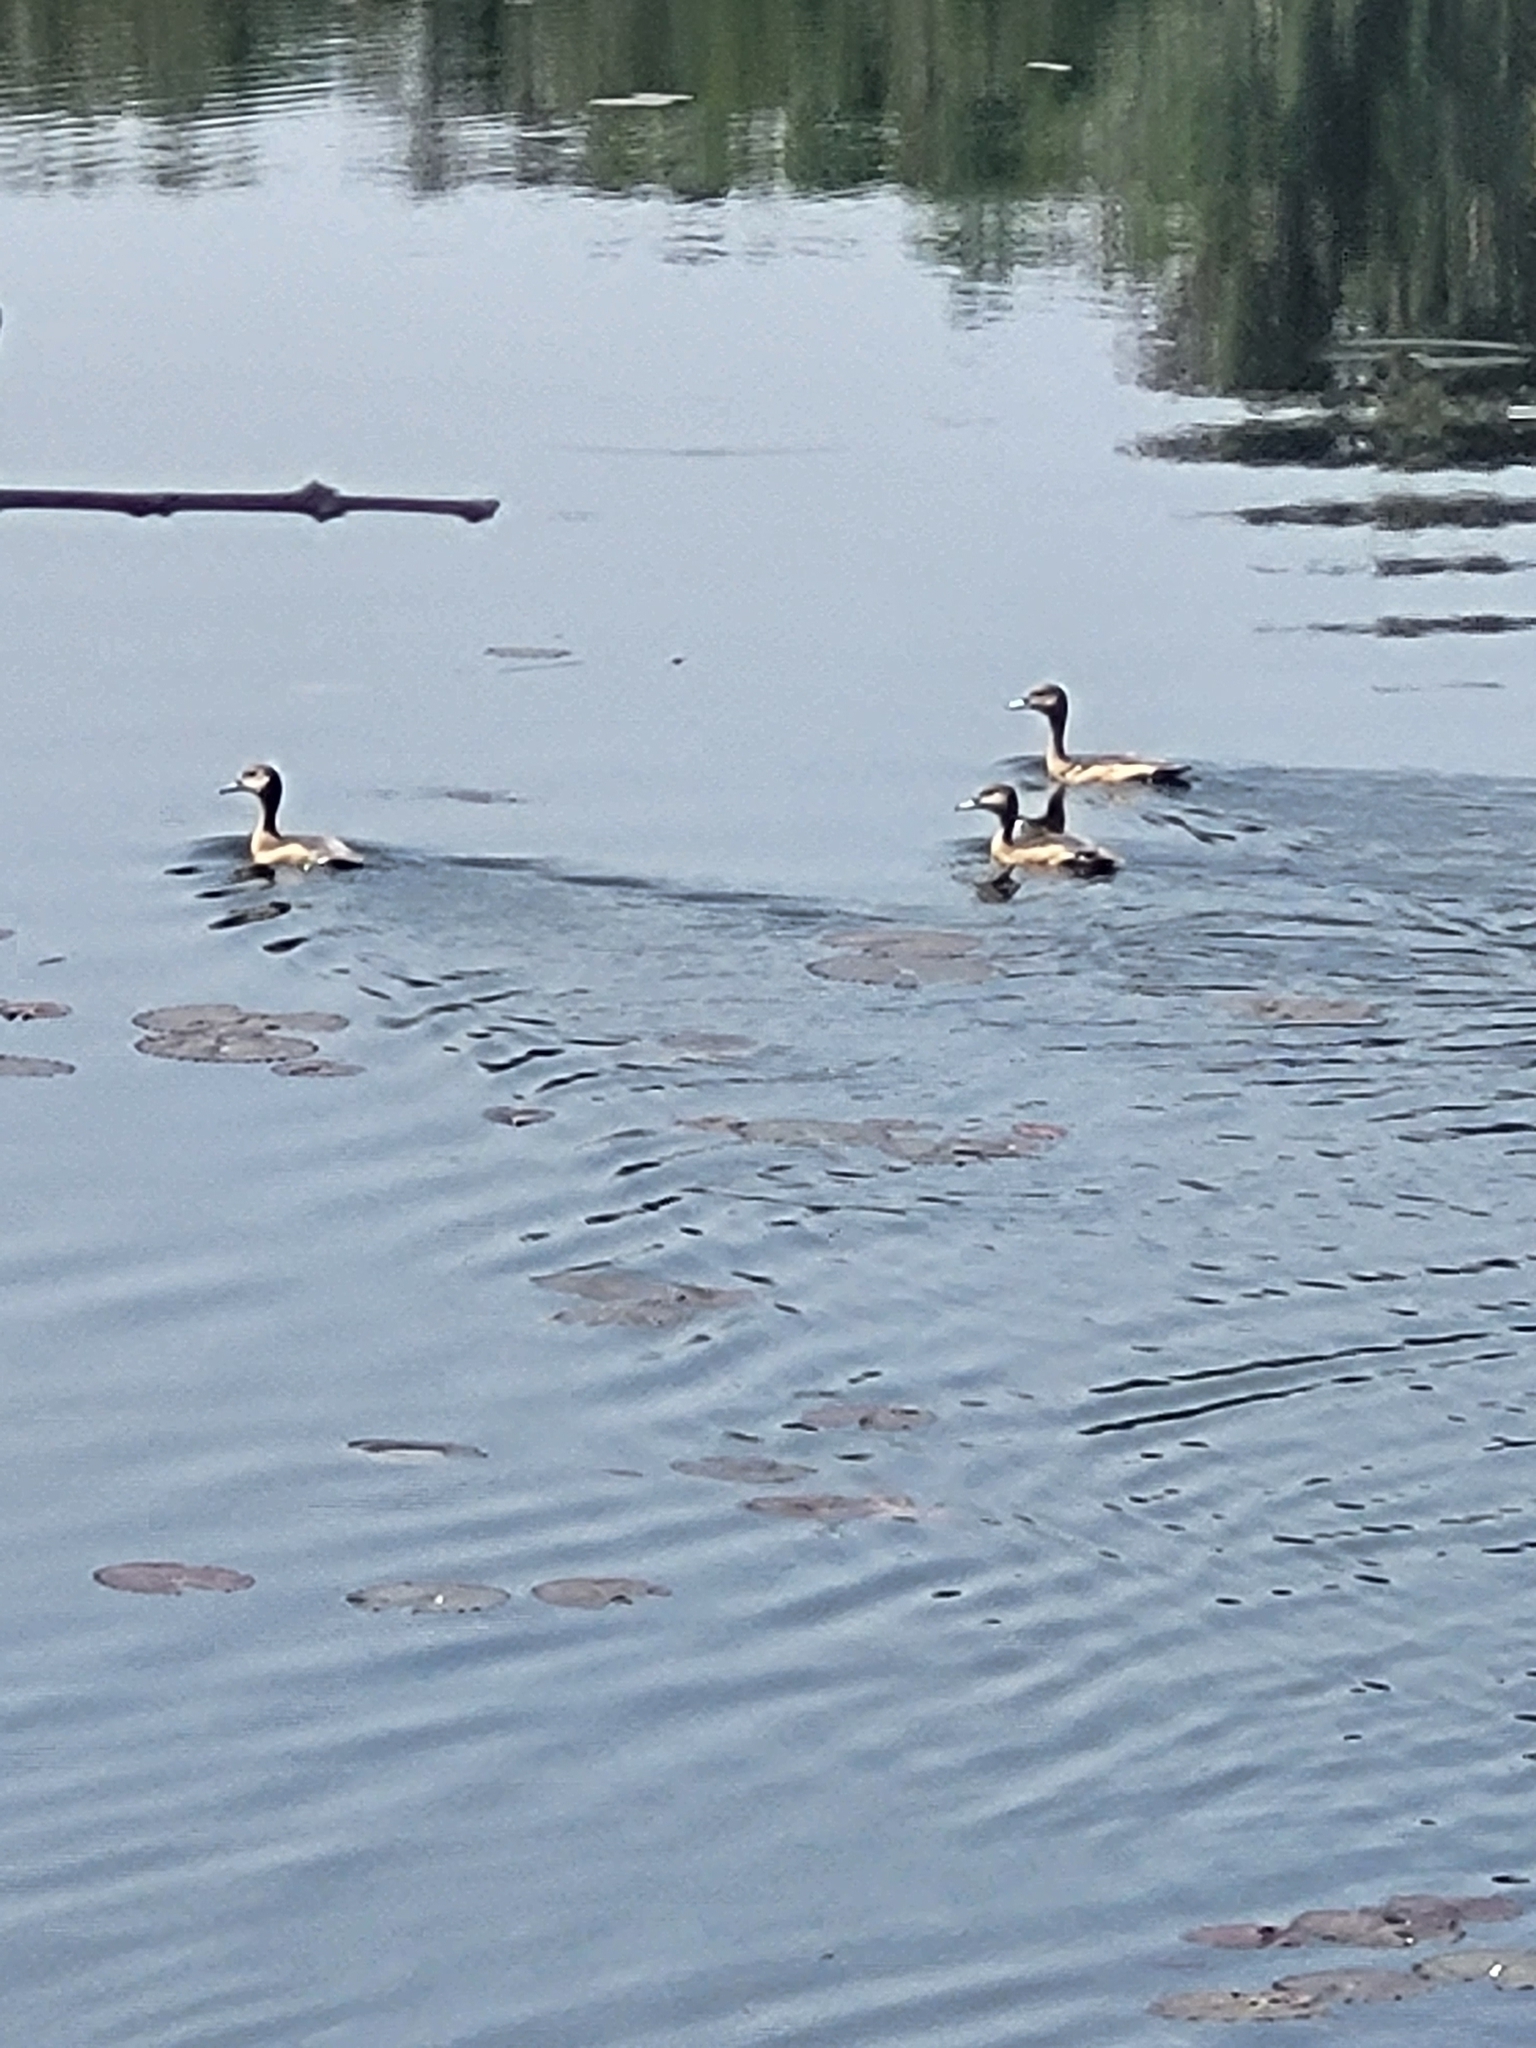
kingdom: Animalia
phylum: Chordata
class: Aves
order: Anseriformes
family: Anatidae
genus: Dendrocygna
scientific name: Dendrocygna javanica
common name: Lesser whistling-duck
